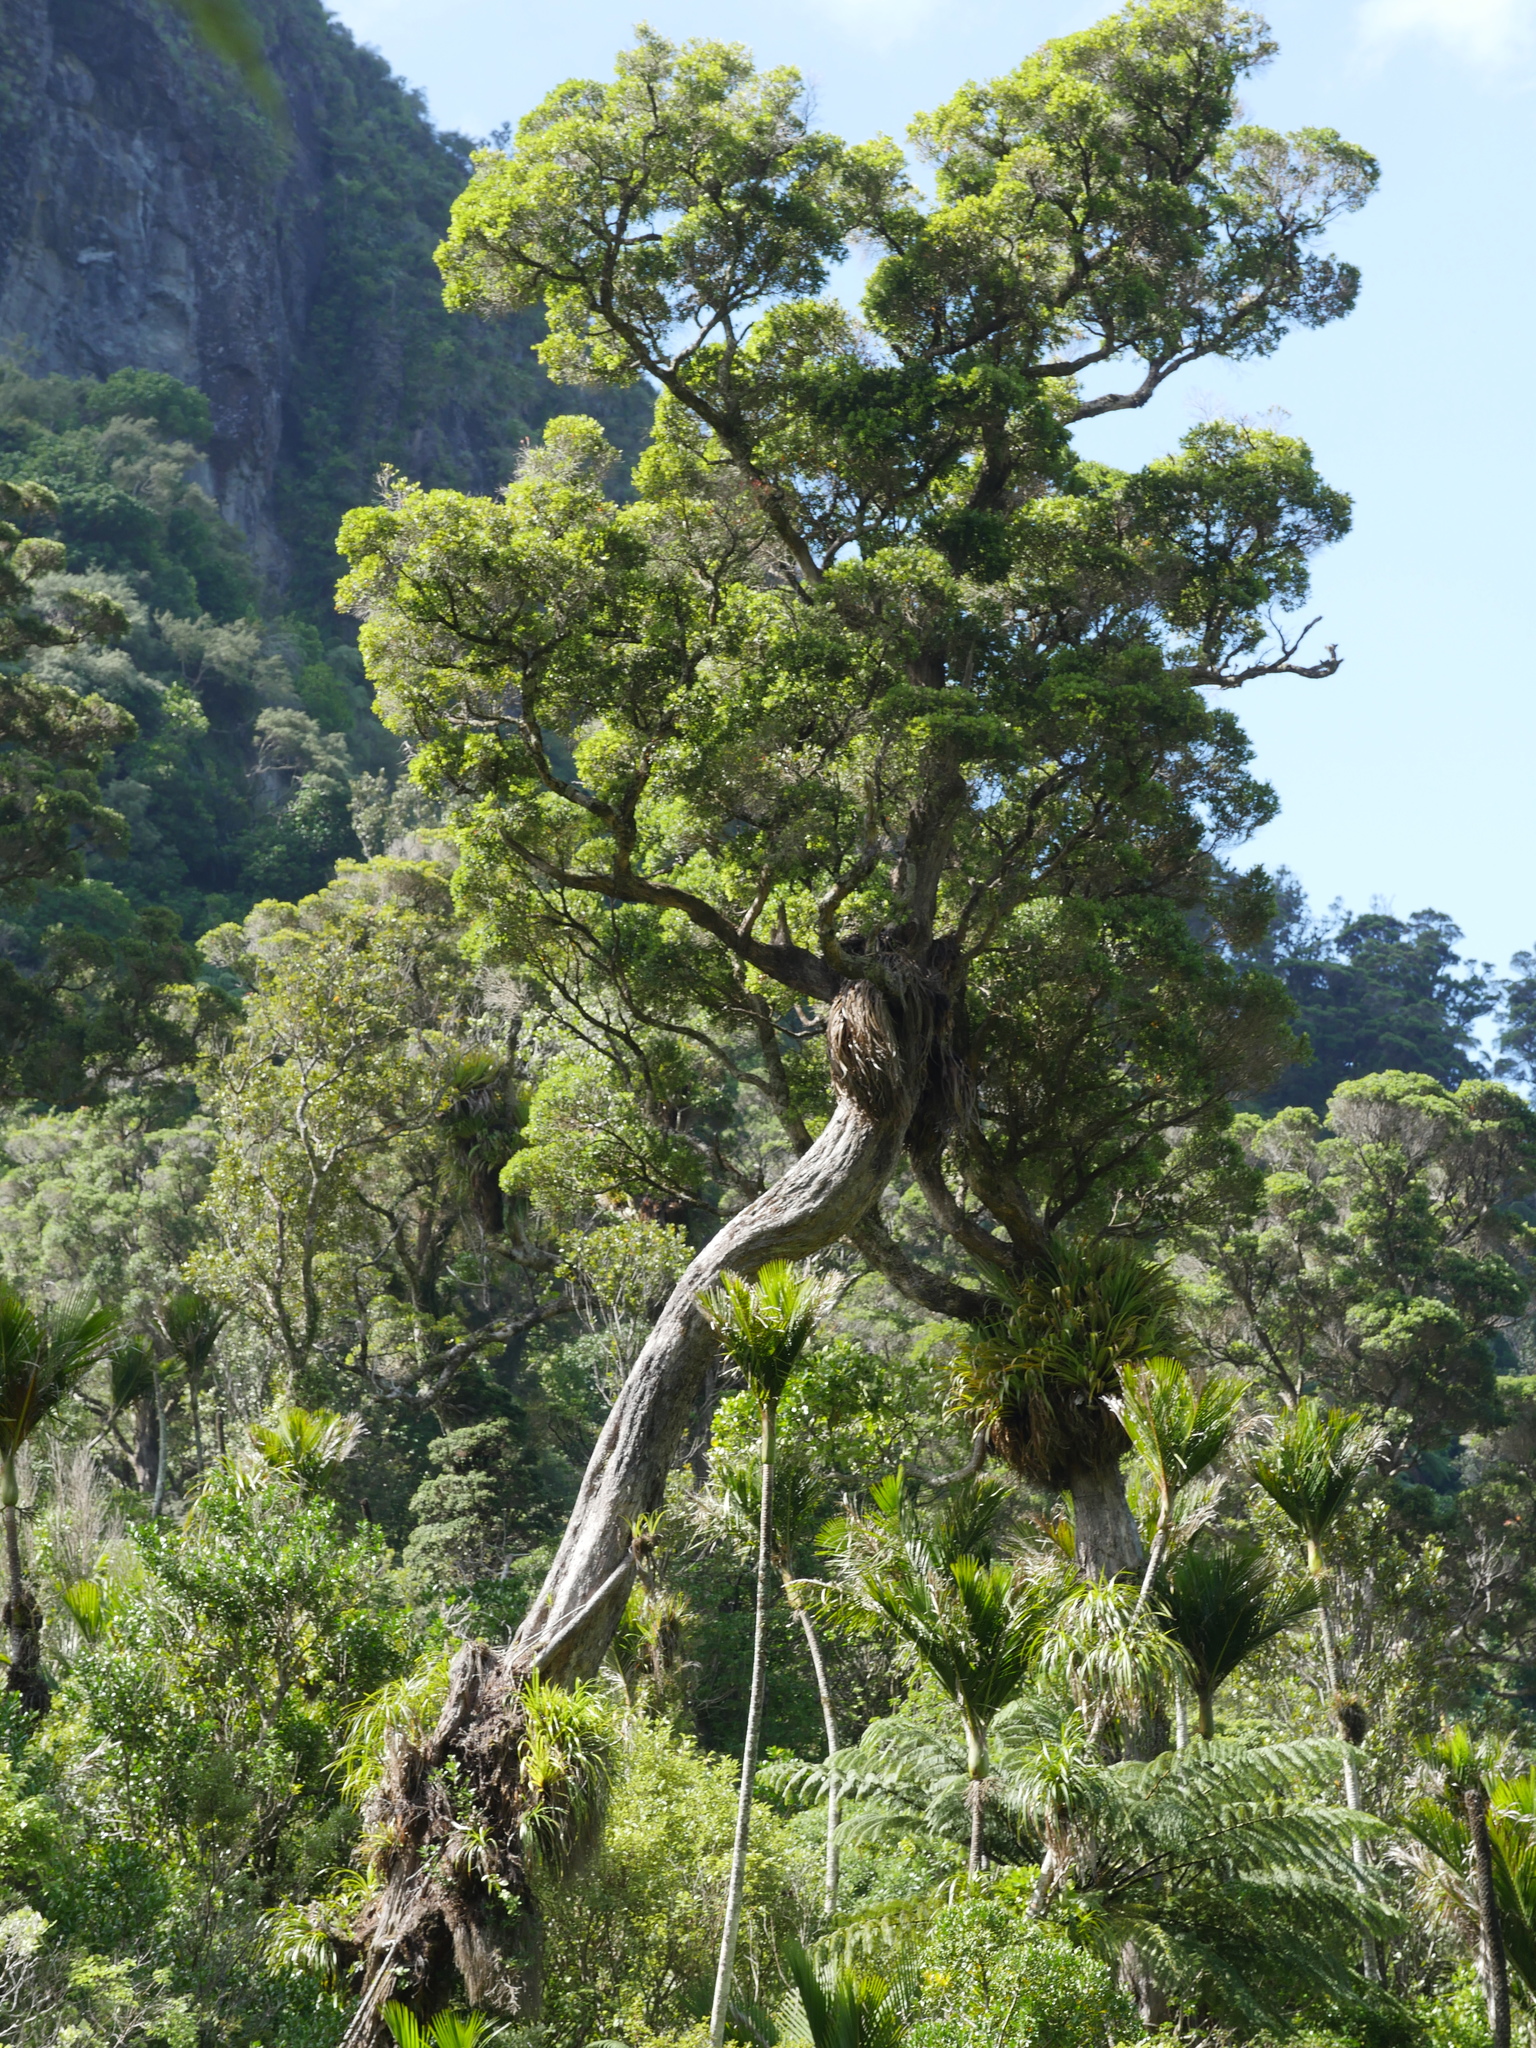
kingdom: Plantae
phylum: Tracheophyta
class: Magnoliopsida
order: Myrtales
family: Myrtaceae
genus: Metrosideros
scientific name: Metrosideros robusta
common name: Northern rata
